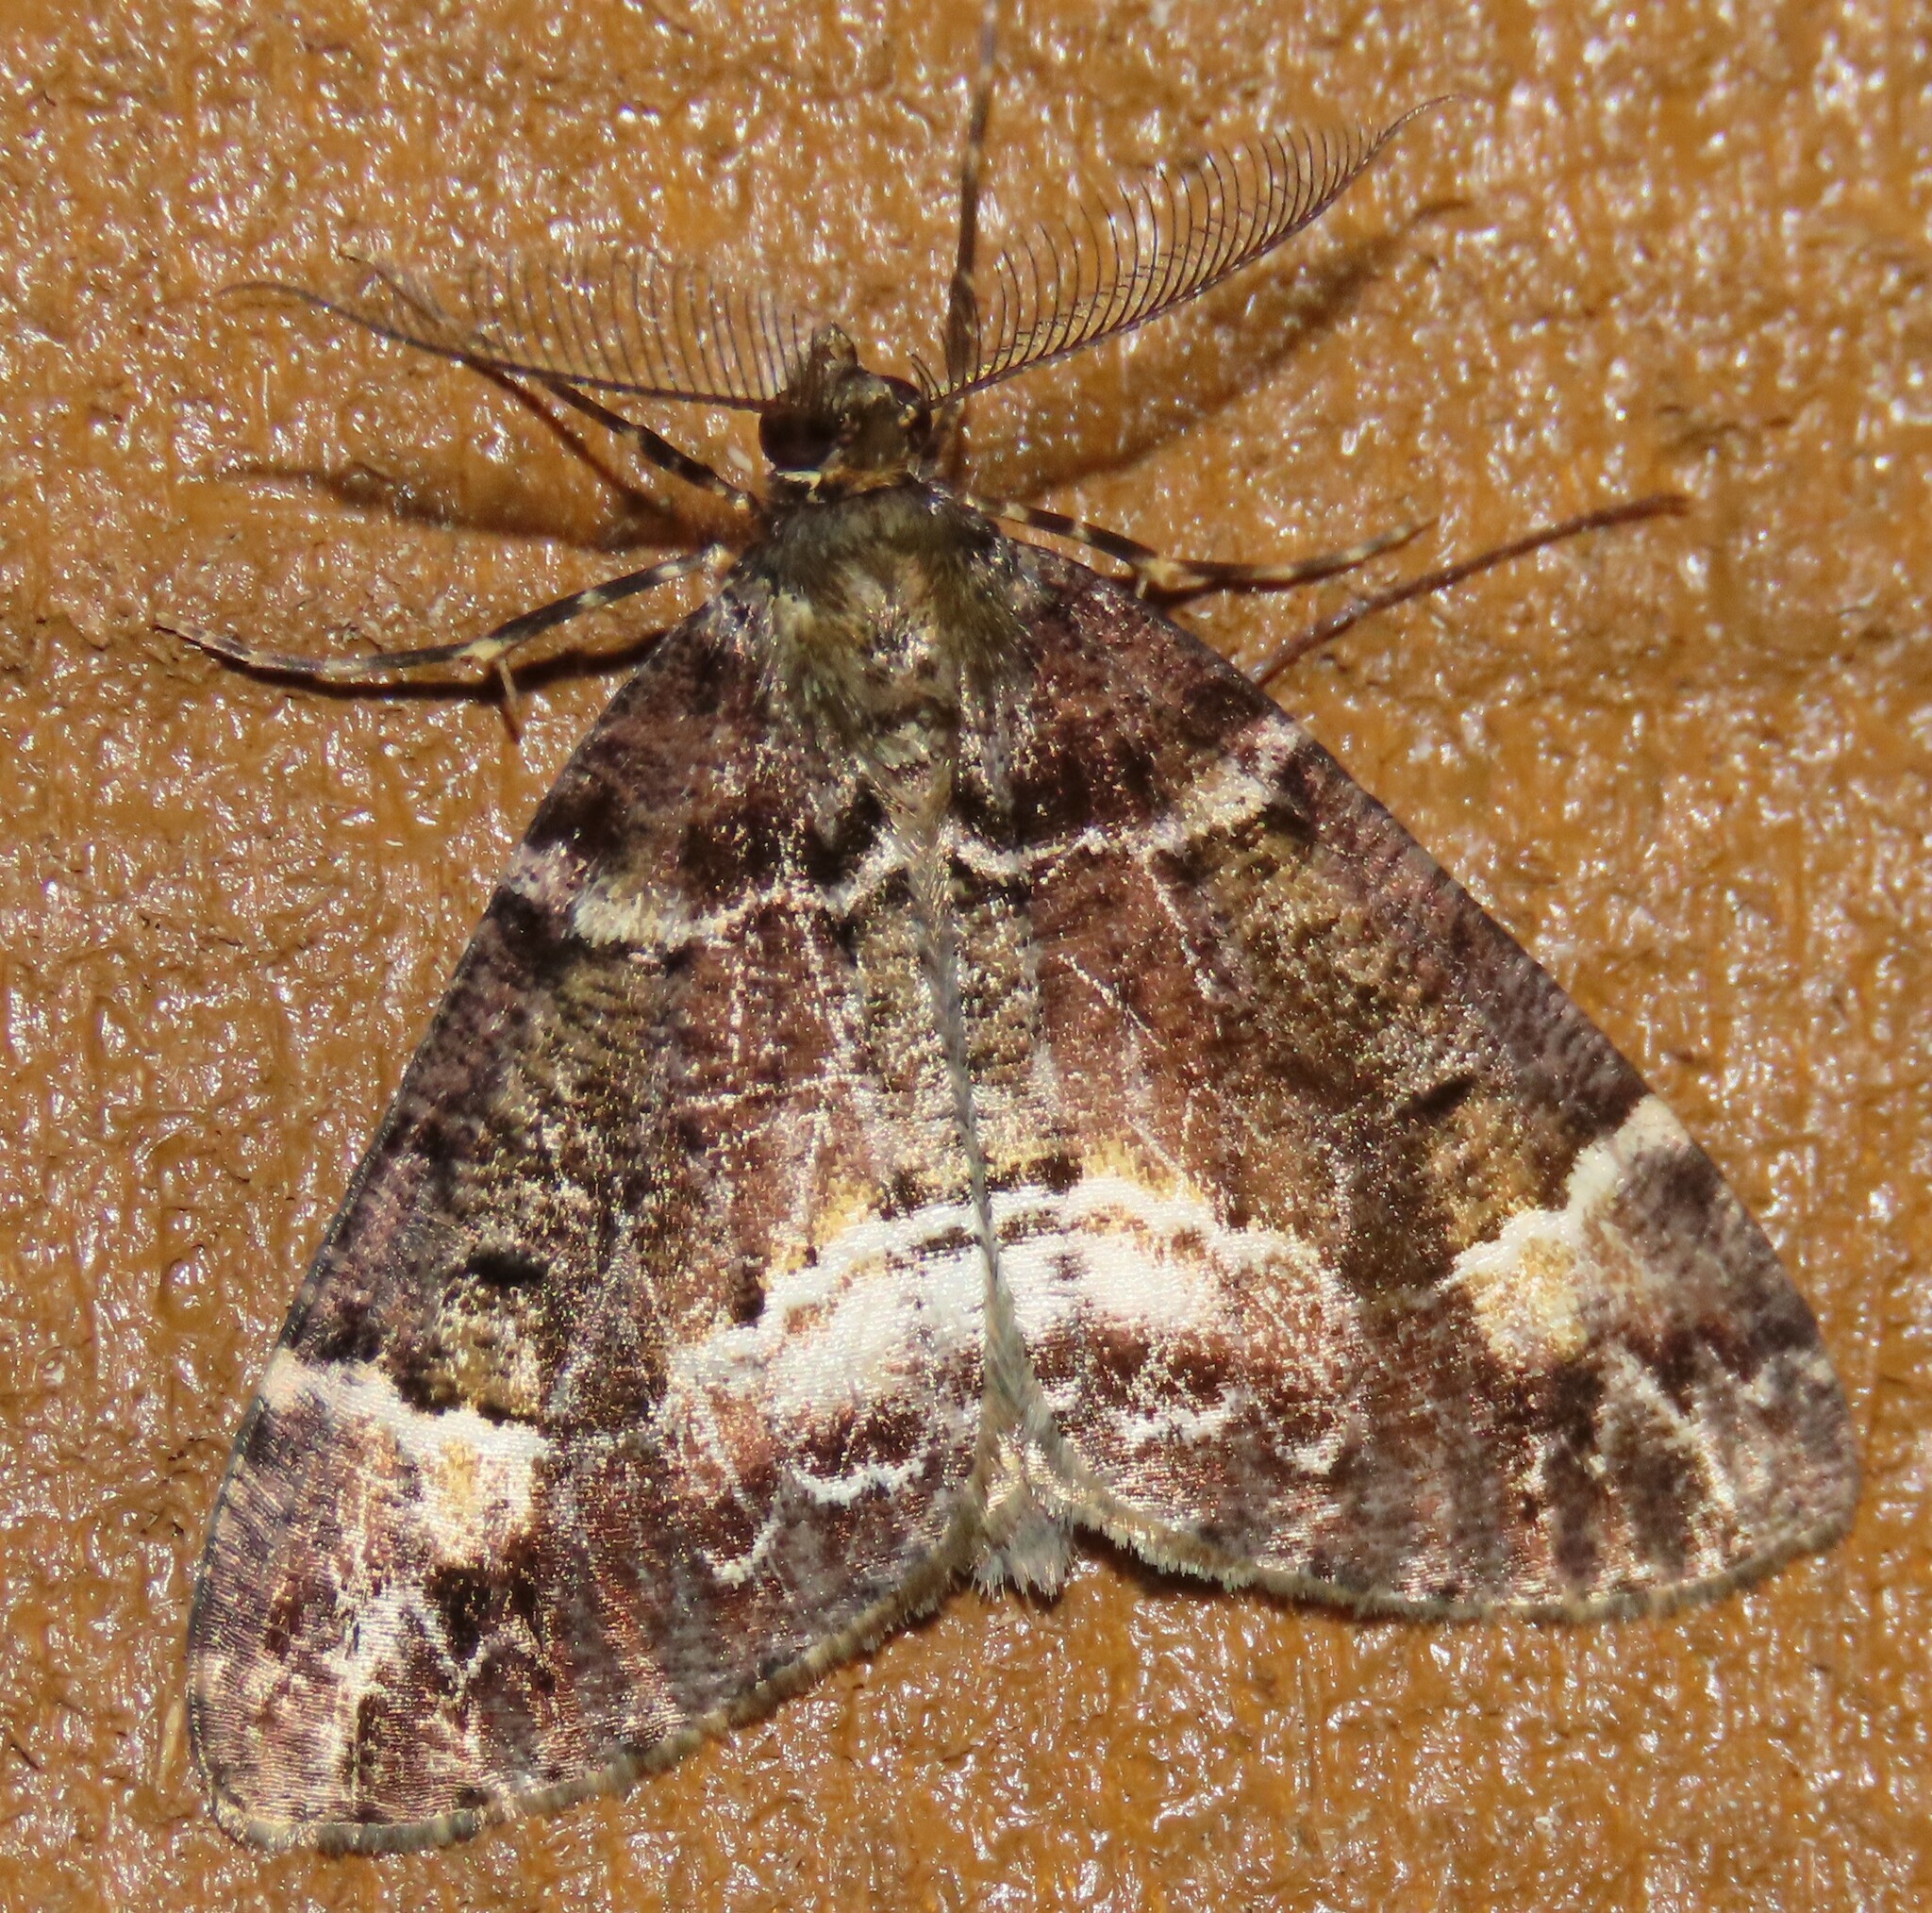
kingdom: Animalia
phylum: Arthropoda
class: Insecta
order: Lepidoptera
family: Geometridae
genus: Pseudocoremia
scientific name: Pseudocoremia productata
